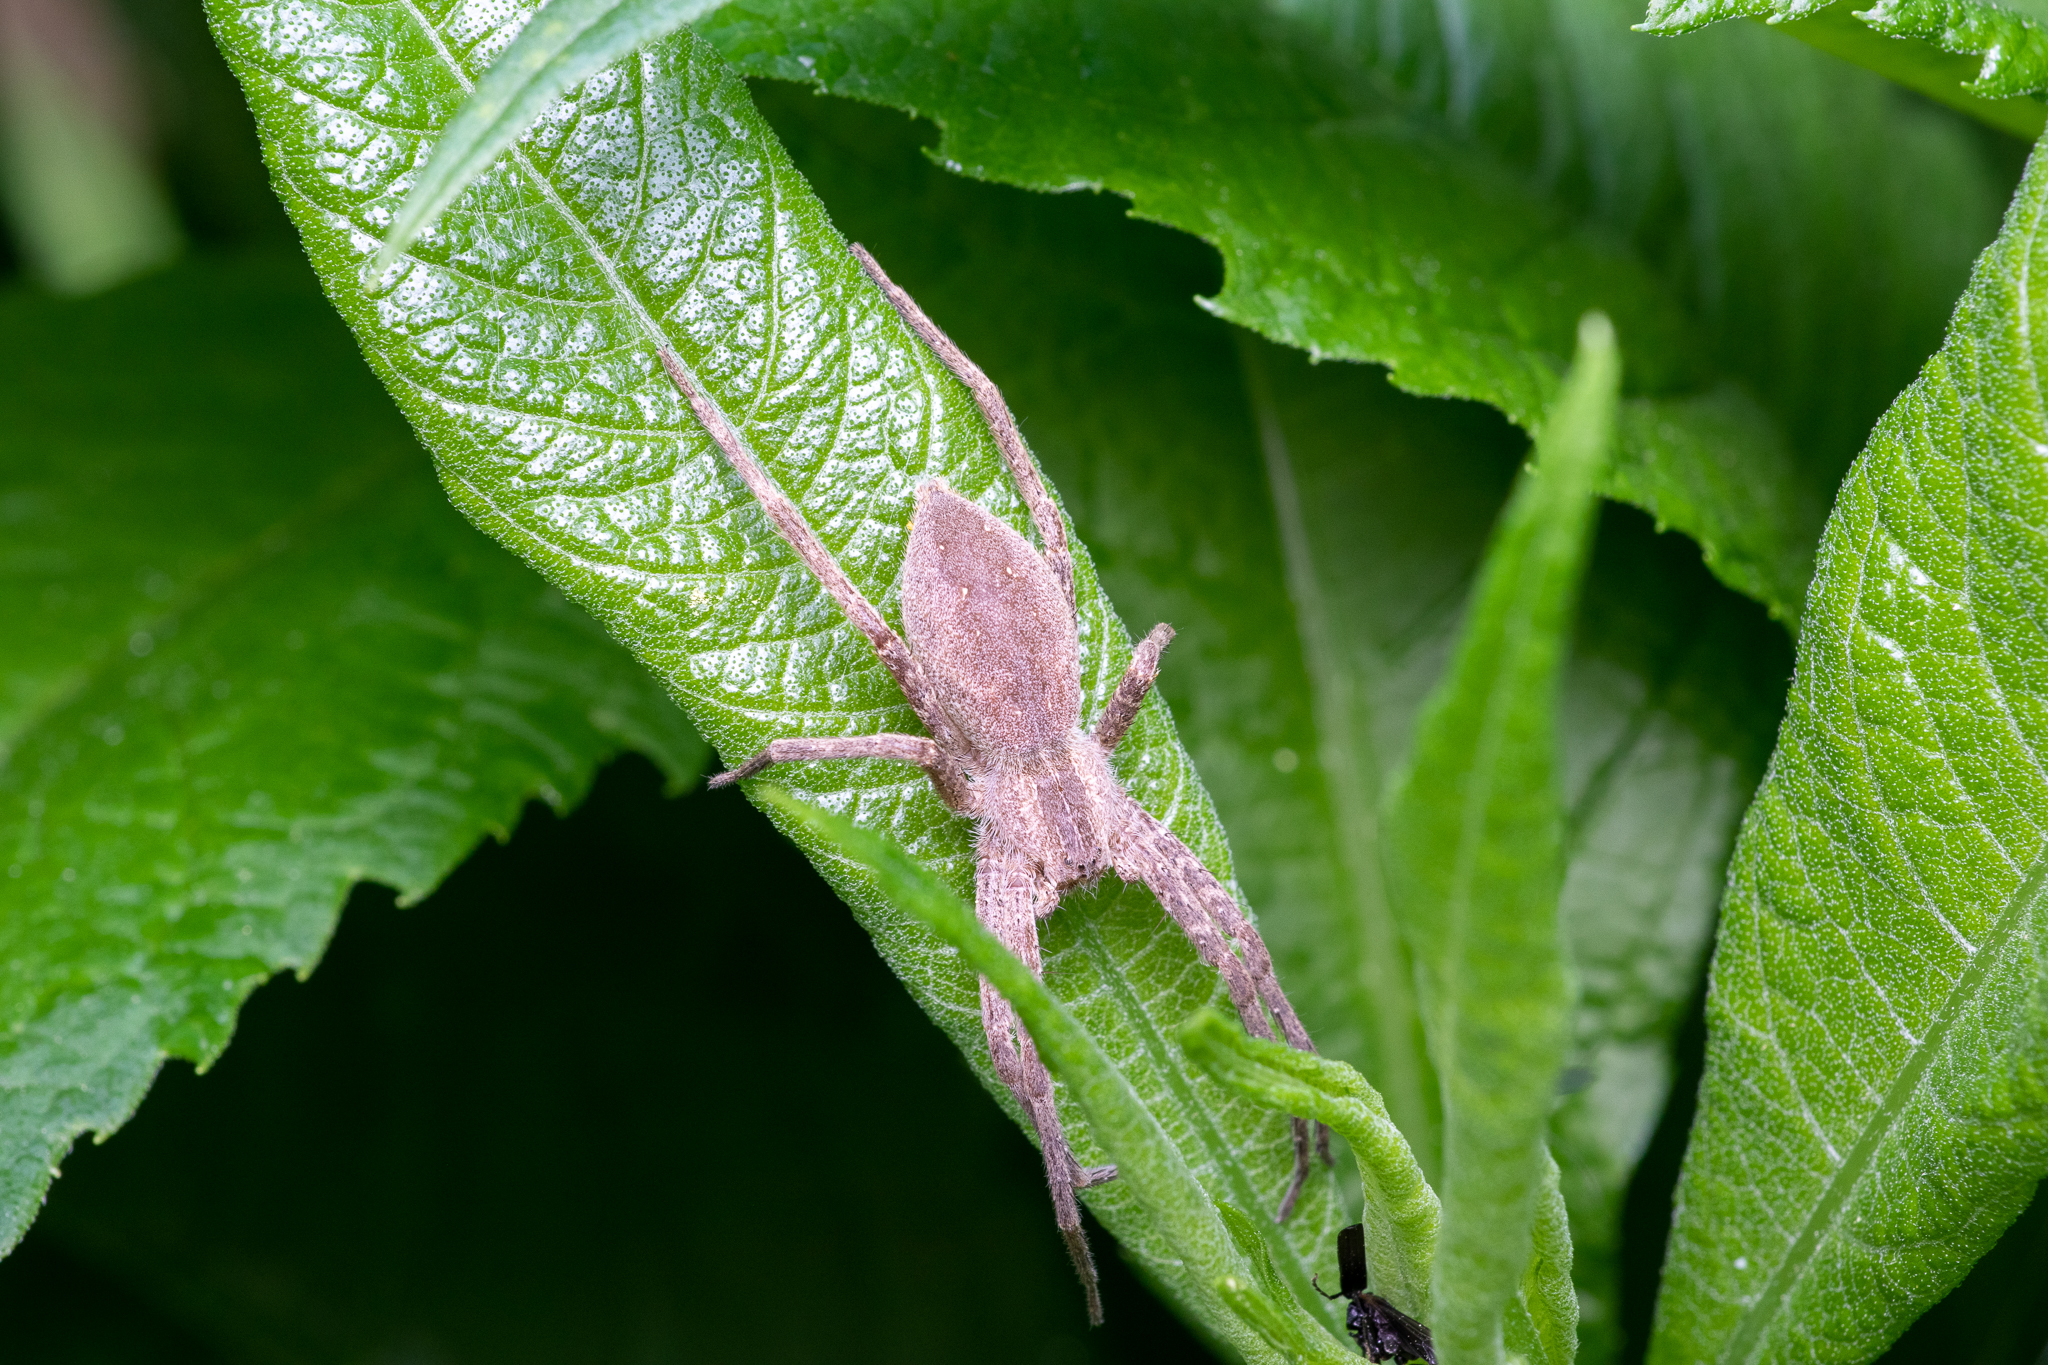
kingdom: Animalia
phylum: Arthropoda
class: Arachnida
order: Araneae
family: Pisauridae
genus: Pisaurina
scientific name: Pisaurina mira
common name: American nursery web spider
